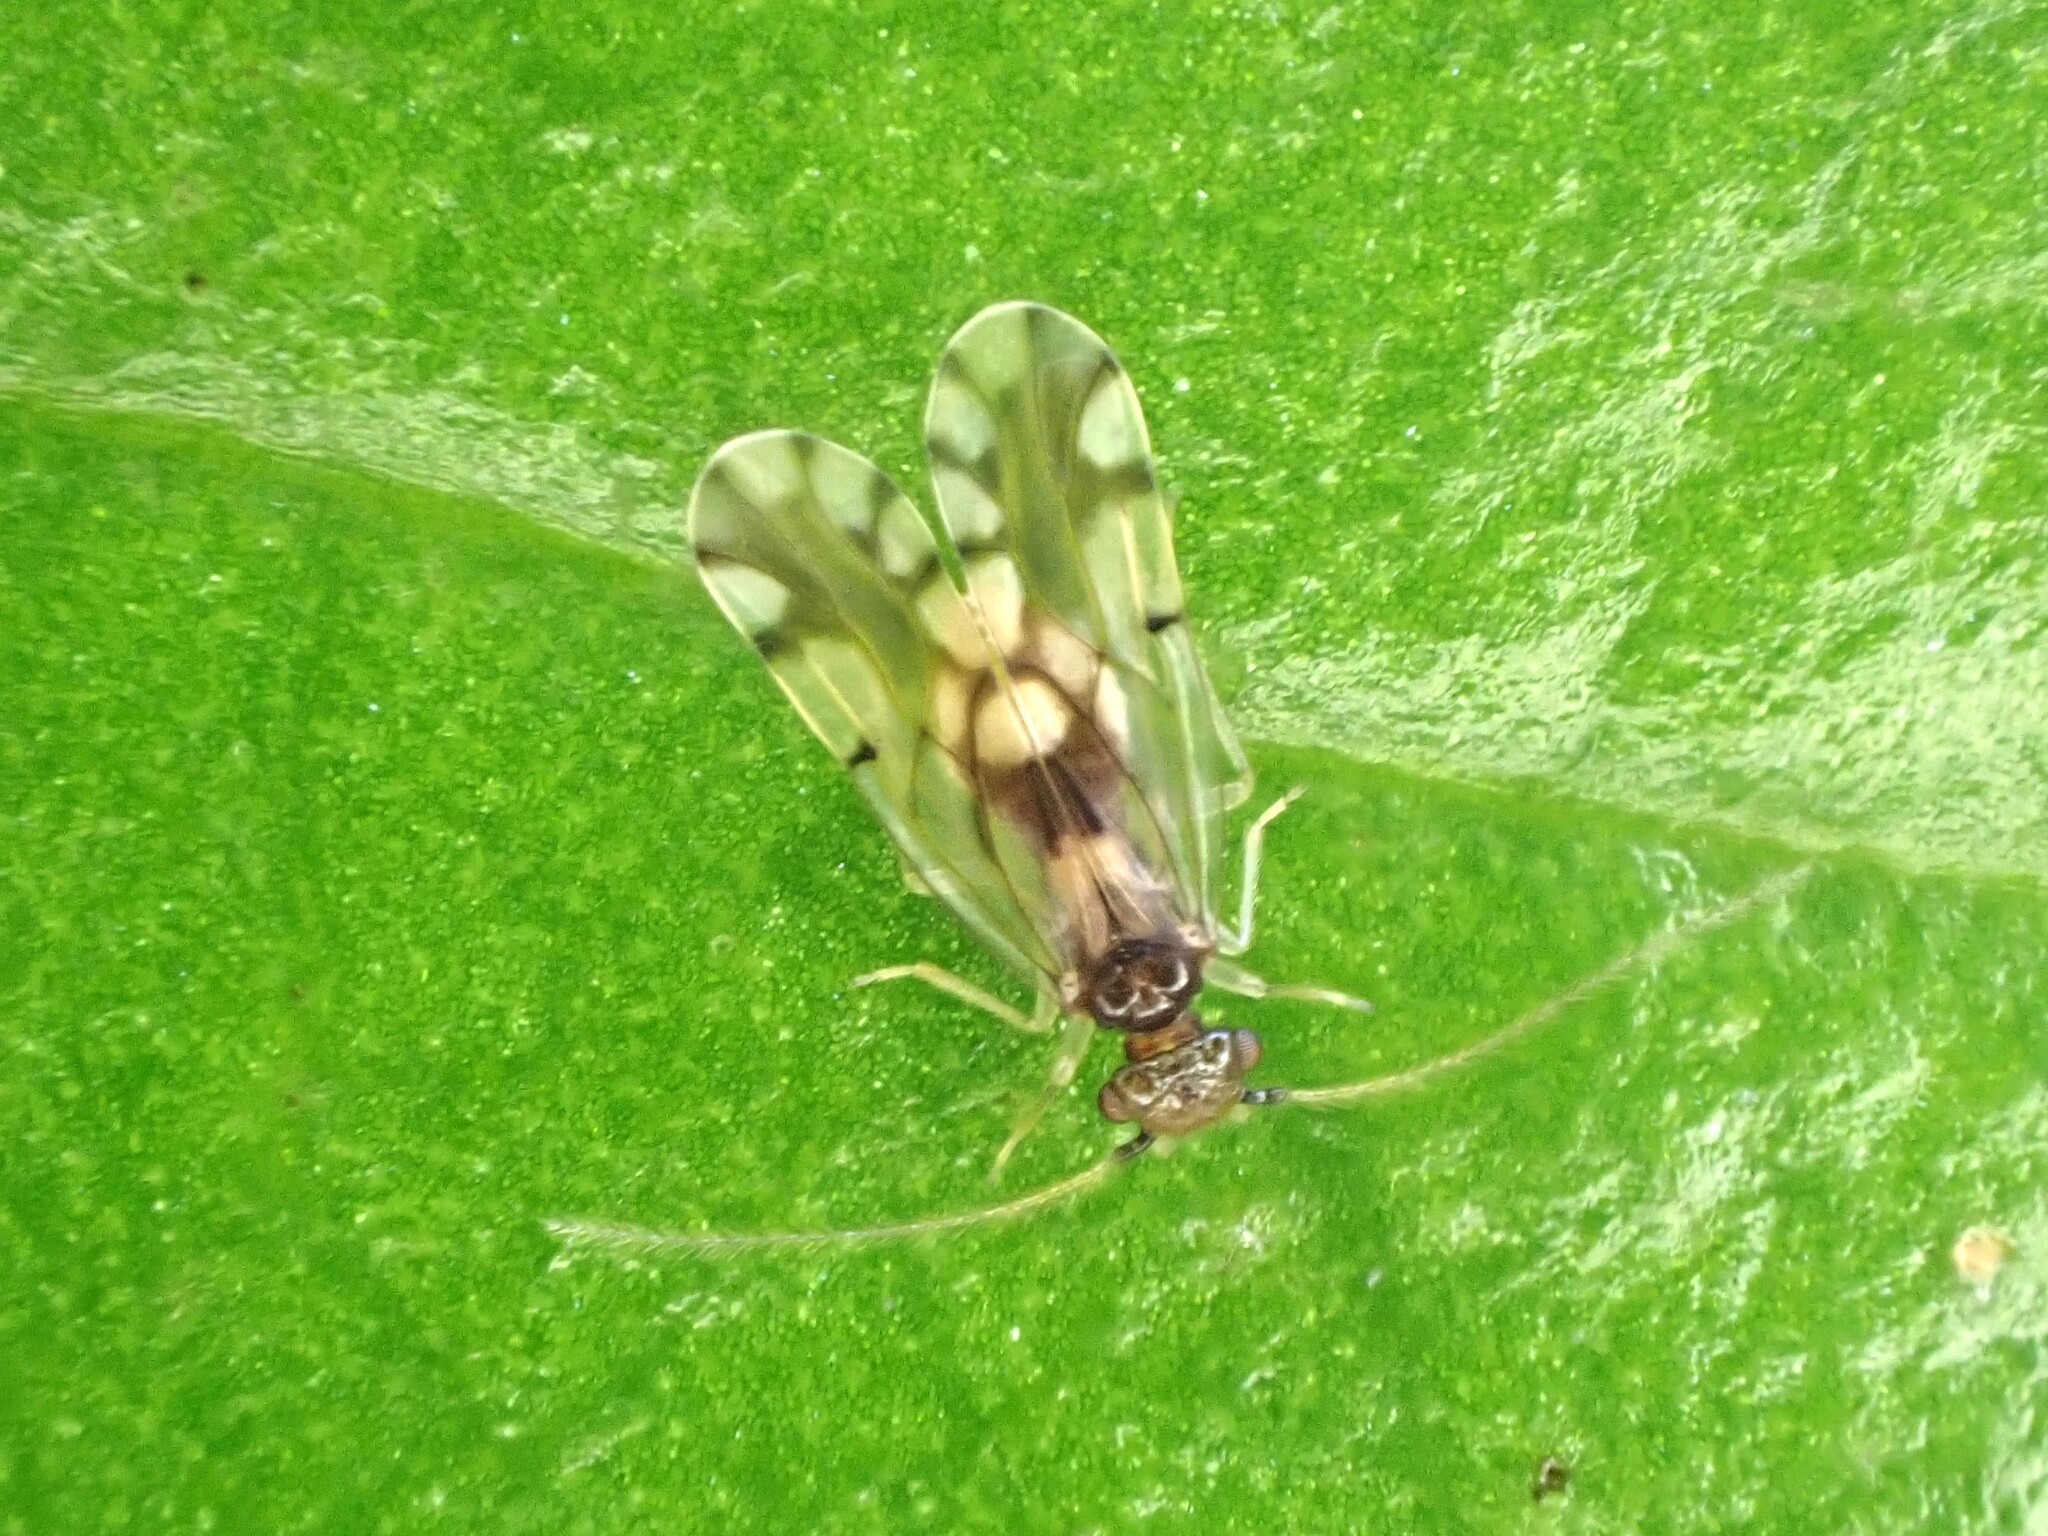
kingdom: Animalia
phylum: Arthropoda
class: Insecta
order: Psocodea
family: Ectopsocidae
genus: Ectopsocus
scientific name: Ectopsocus gracilis
